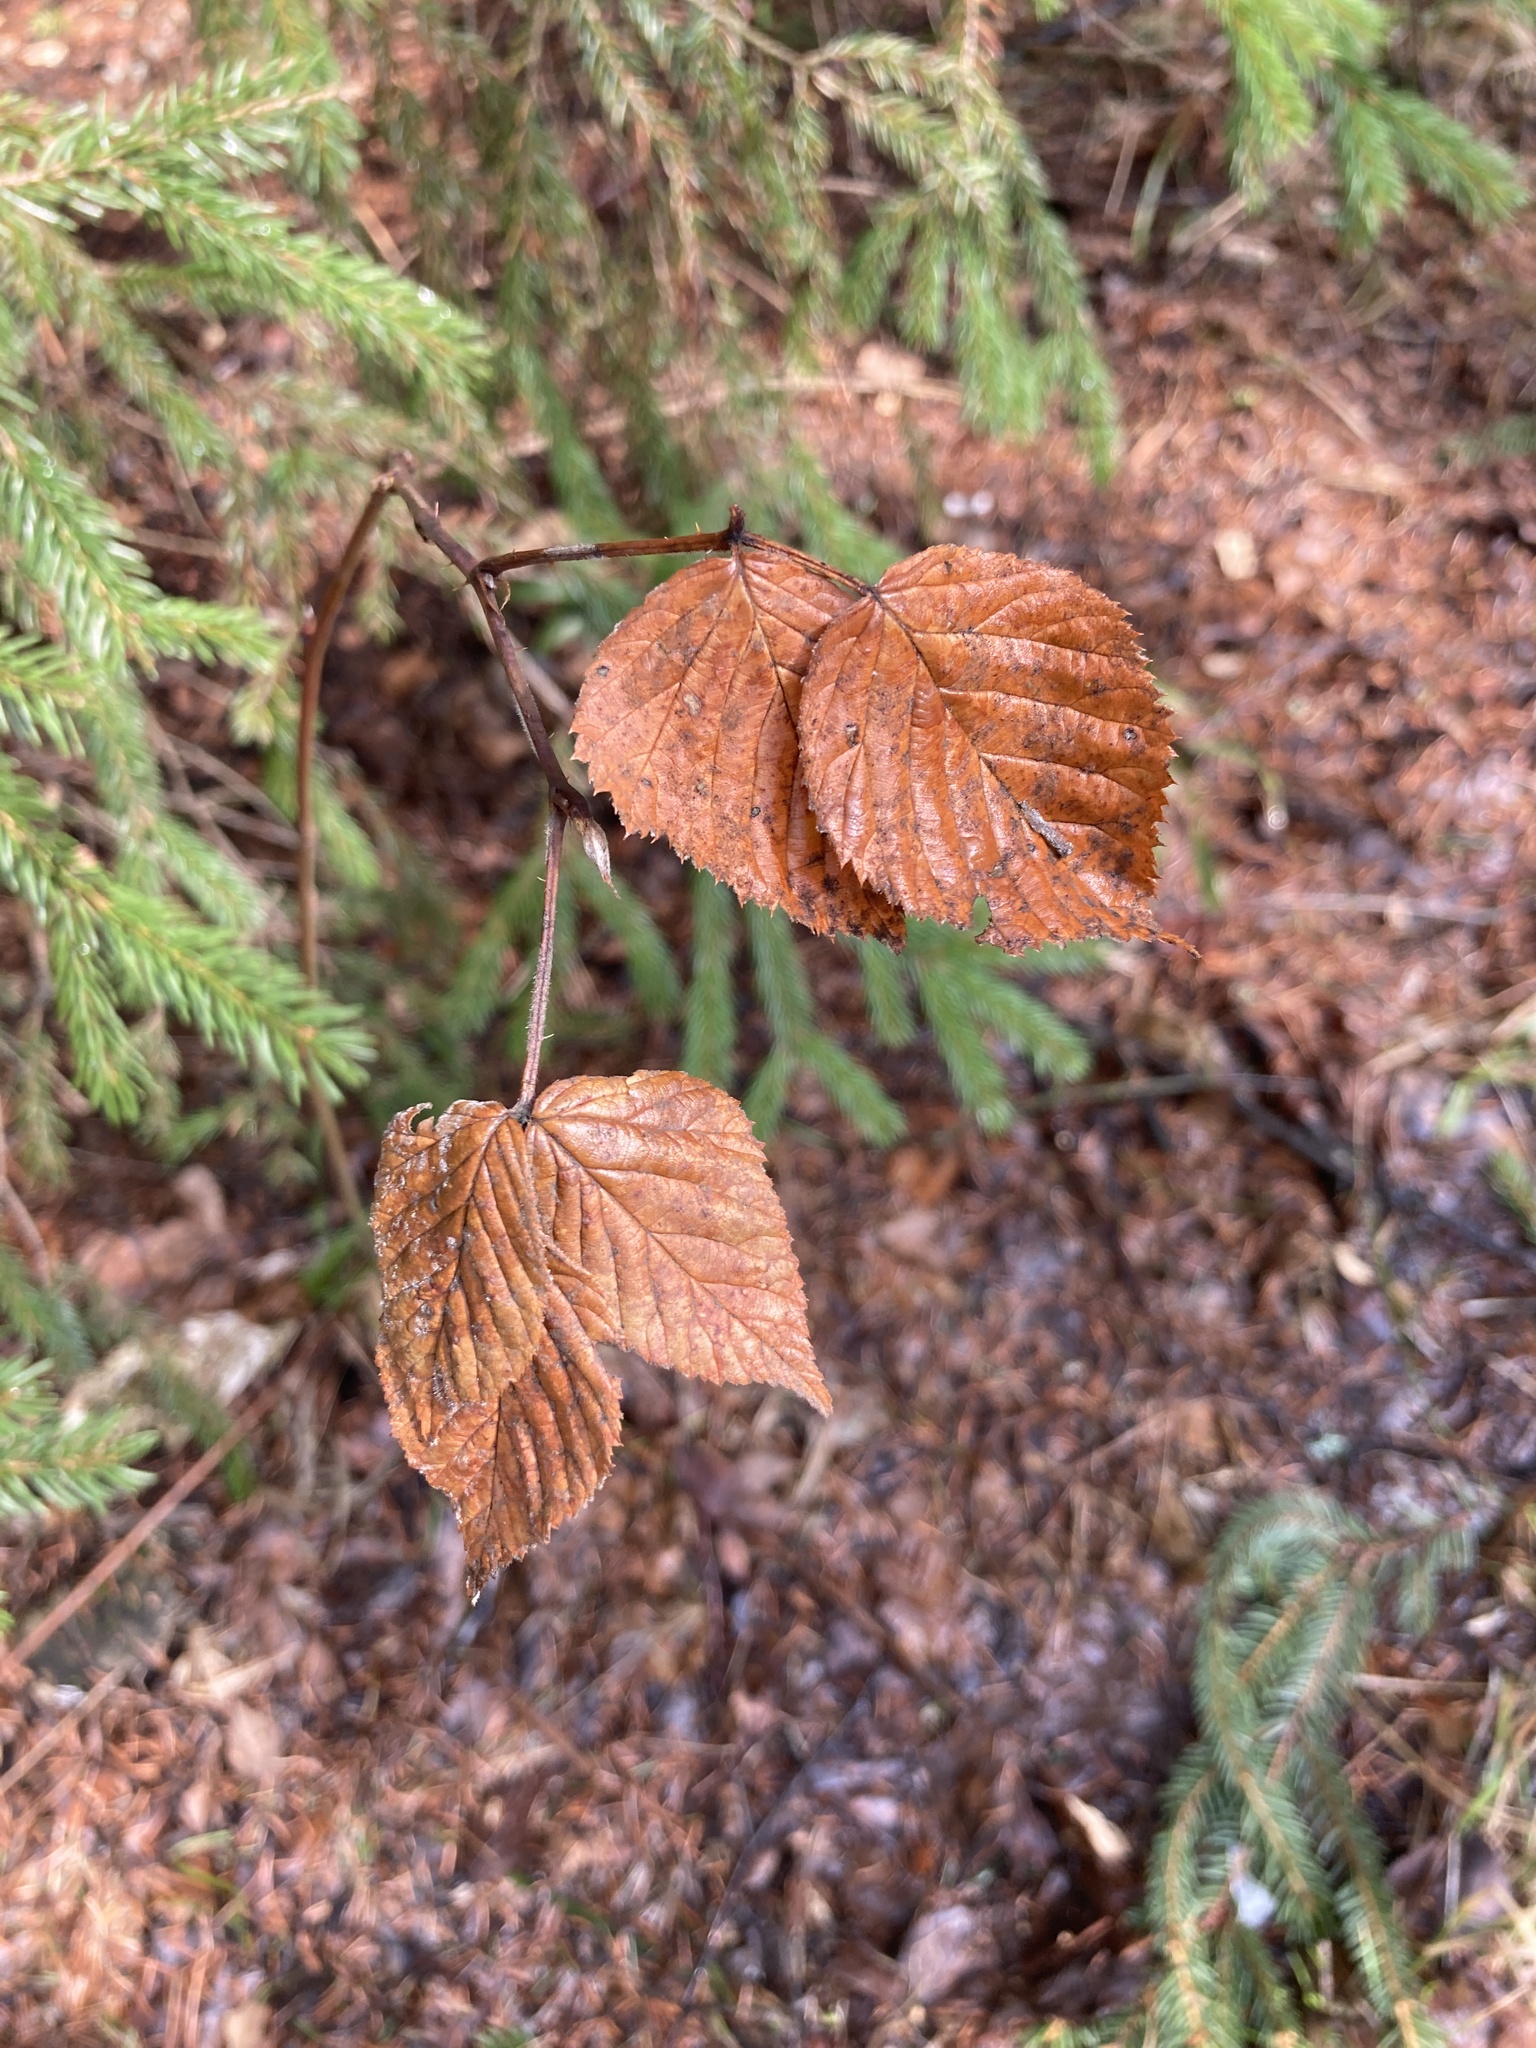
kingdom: Plantae
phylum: Tracheophyta
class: Magnoliopsida
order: Rosales
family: Rosaceae
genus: Rubus
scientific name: Rubus idaeus
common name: Raspberry
